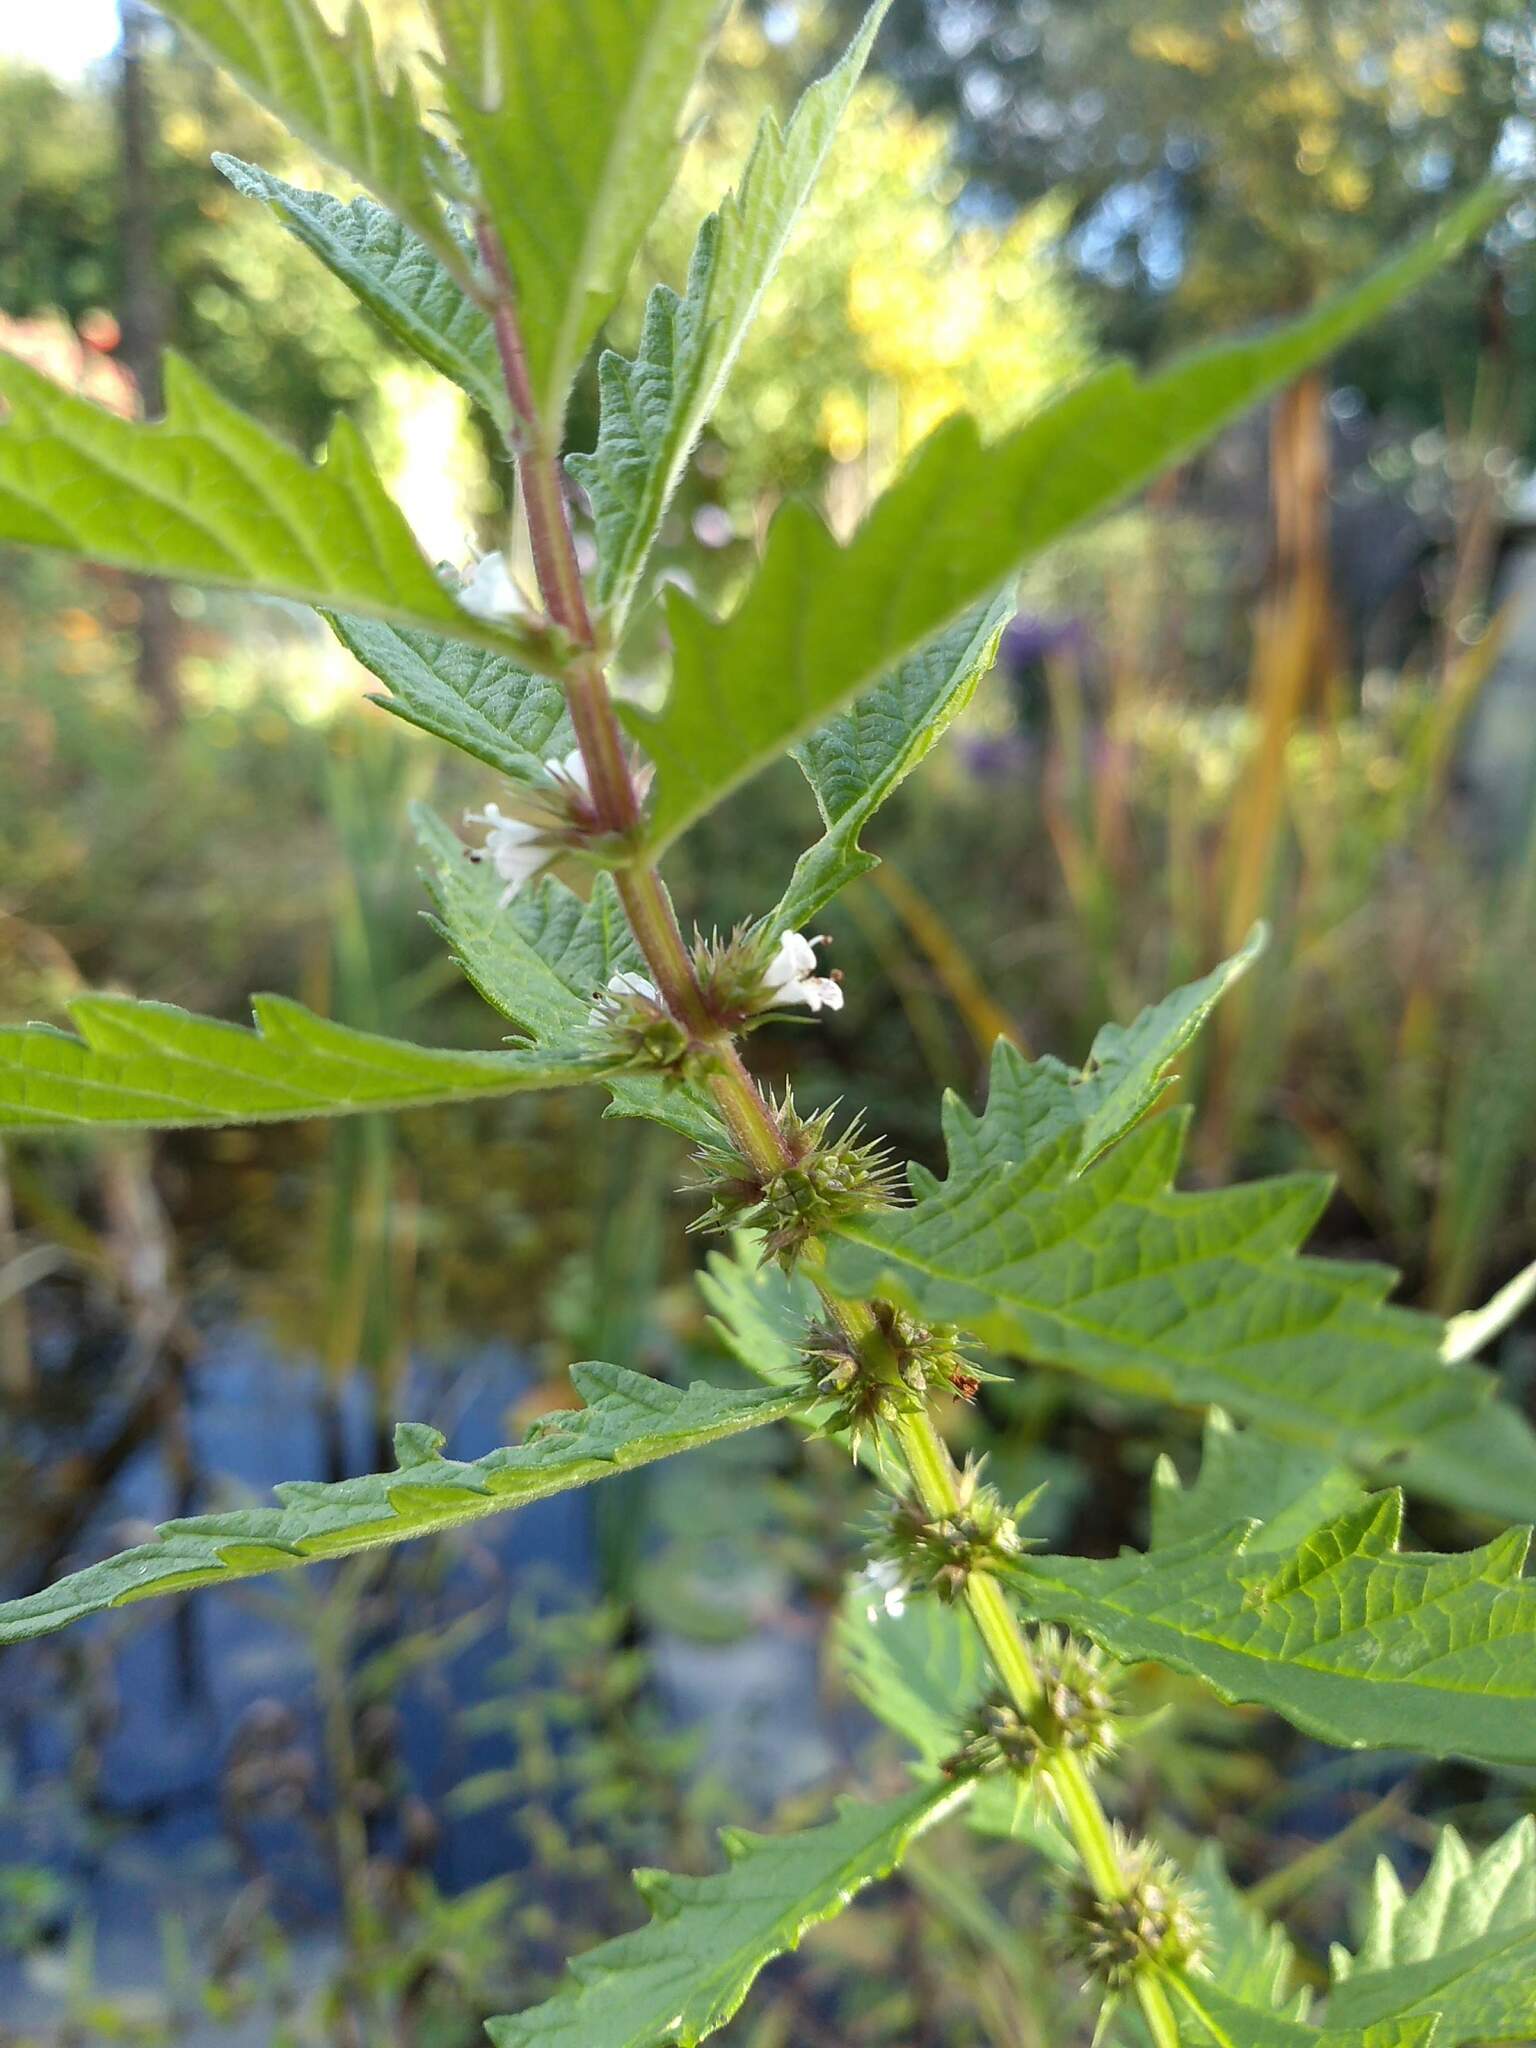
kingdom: Plantae
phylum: Tracheophyta
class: Magnoliopsida
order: Lamiales
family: Lamiaceae
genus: Lycopus
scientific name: Lycopus europaeus
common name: European bugleweed
